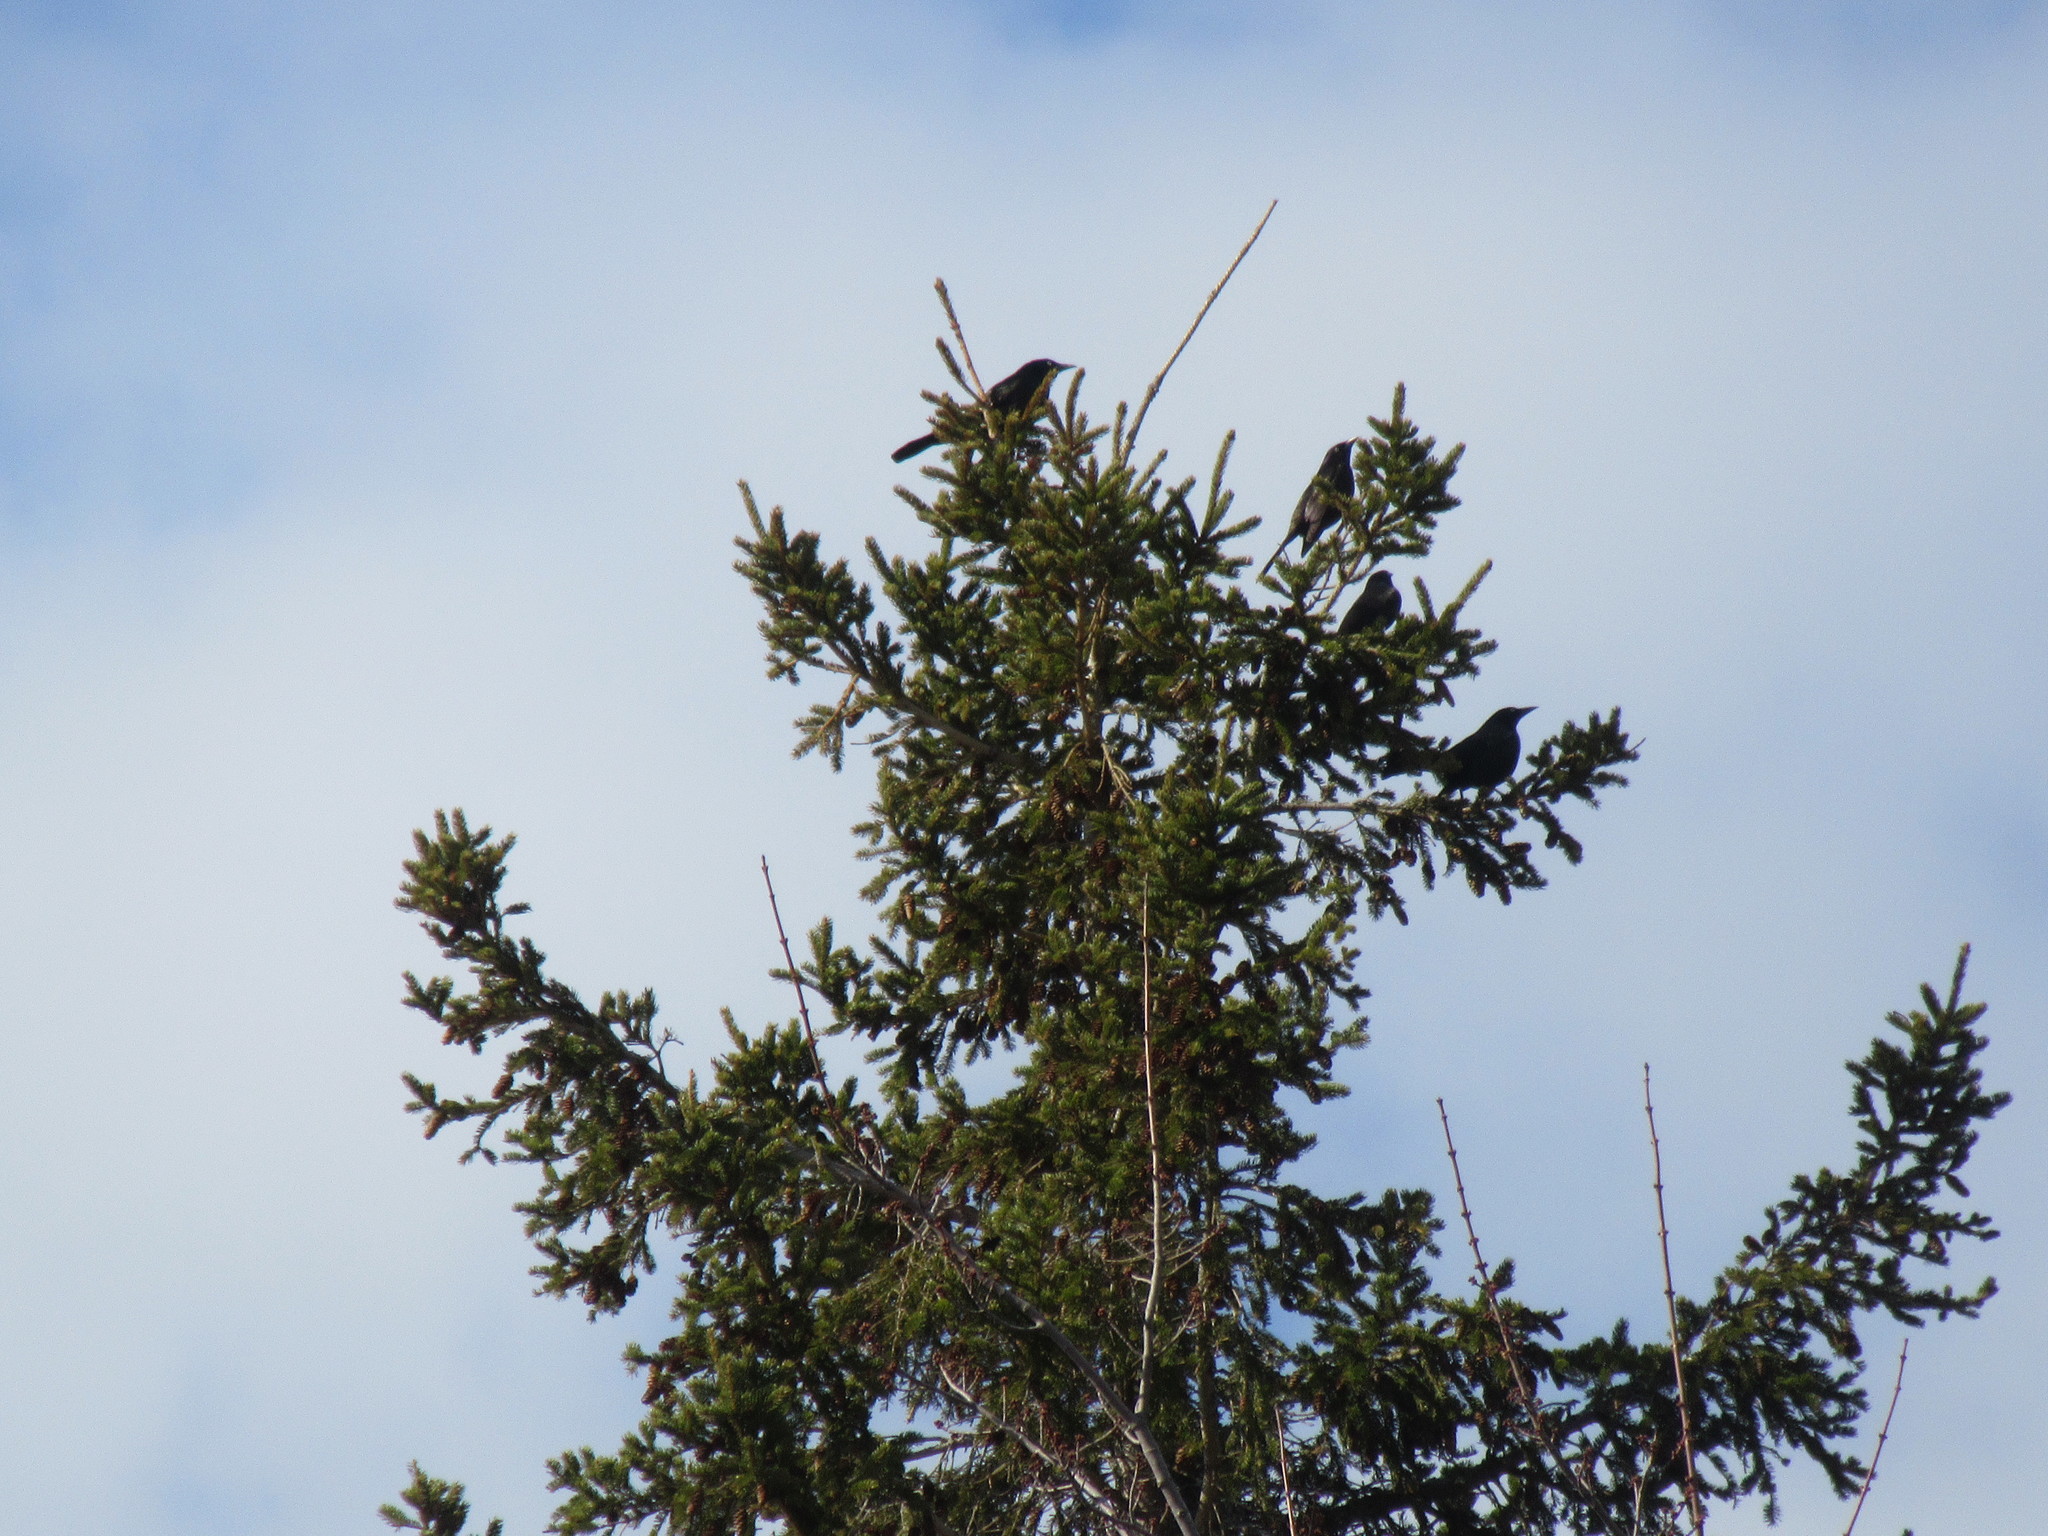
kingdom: Animalia
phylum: Chordata
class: Aves
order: Passeriformes
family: Icteridae
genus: Quiscalus
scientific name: Quiscalus quiscula
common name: Common grackle
